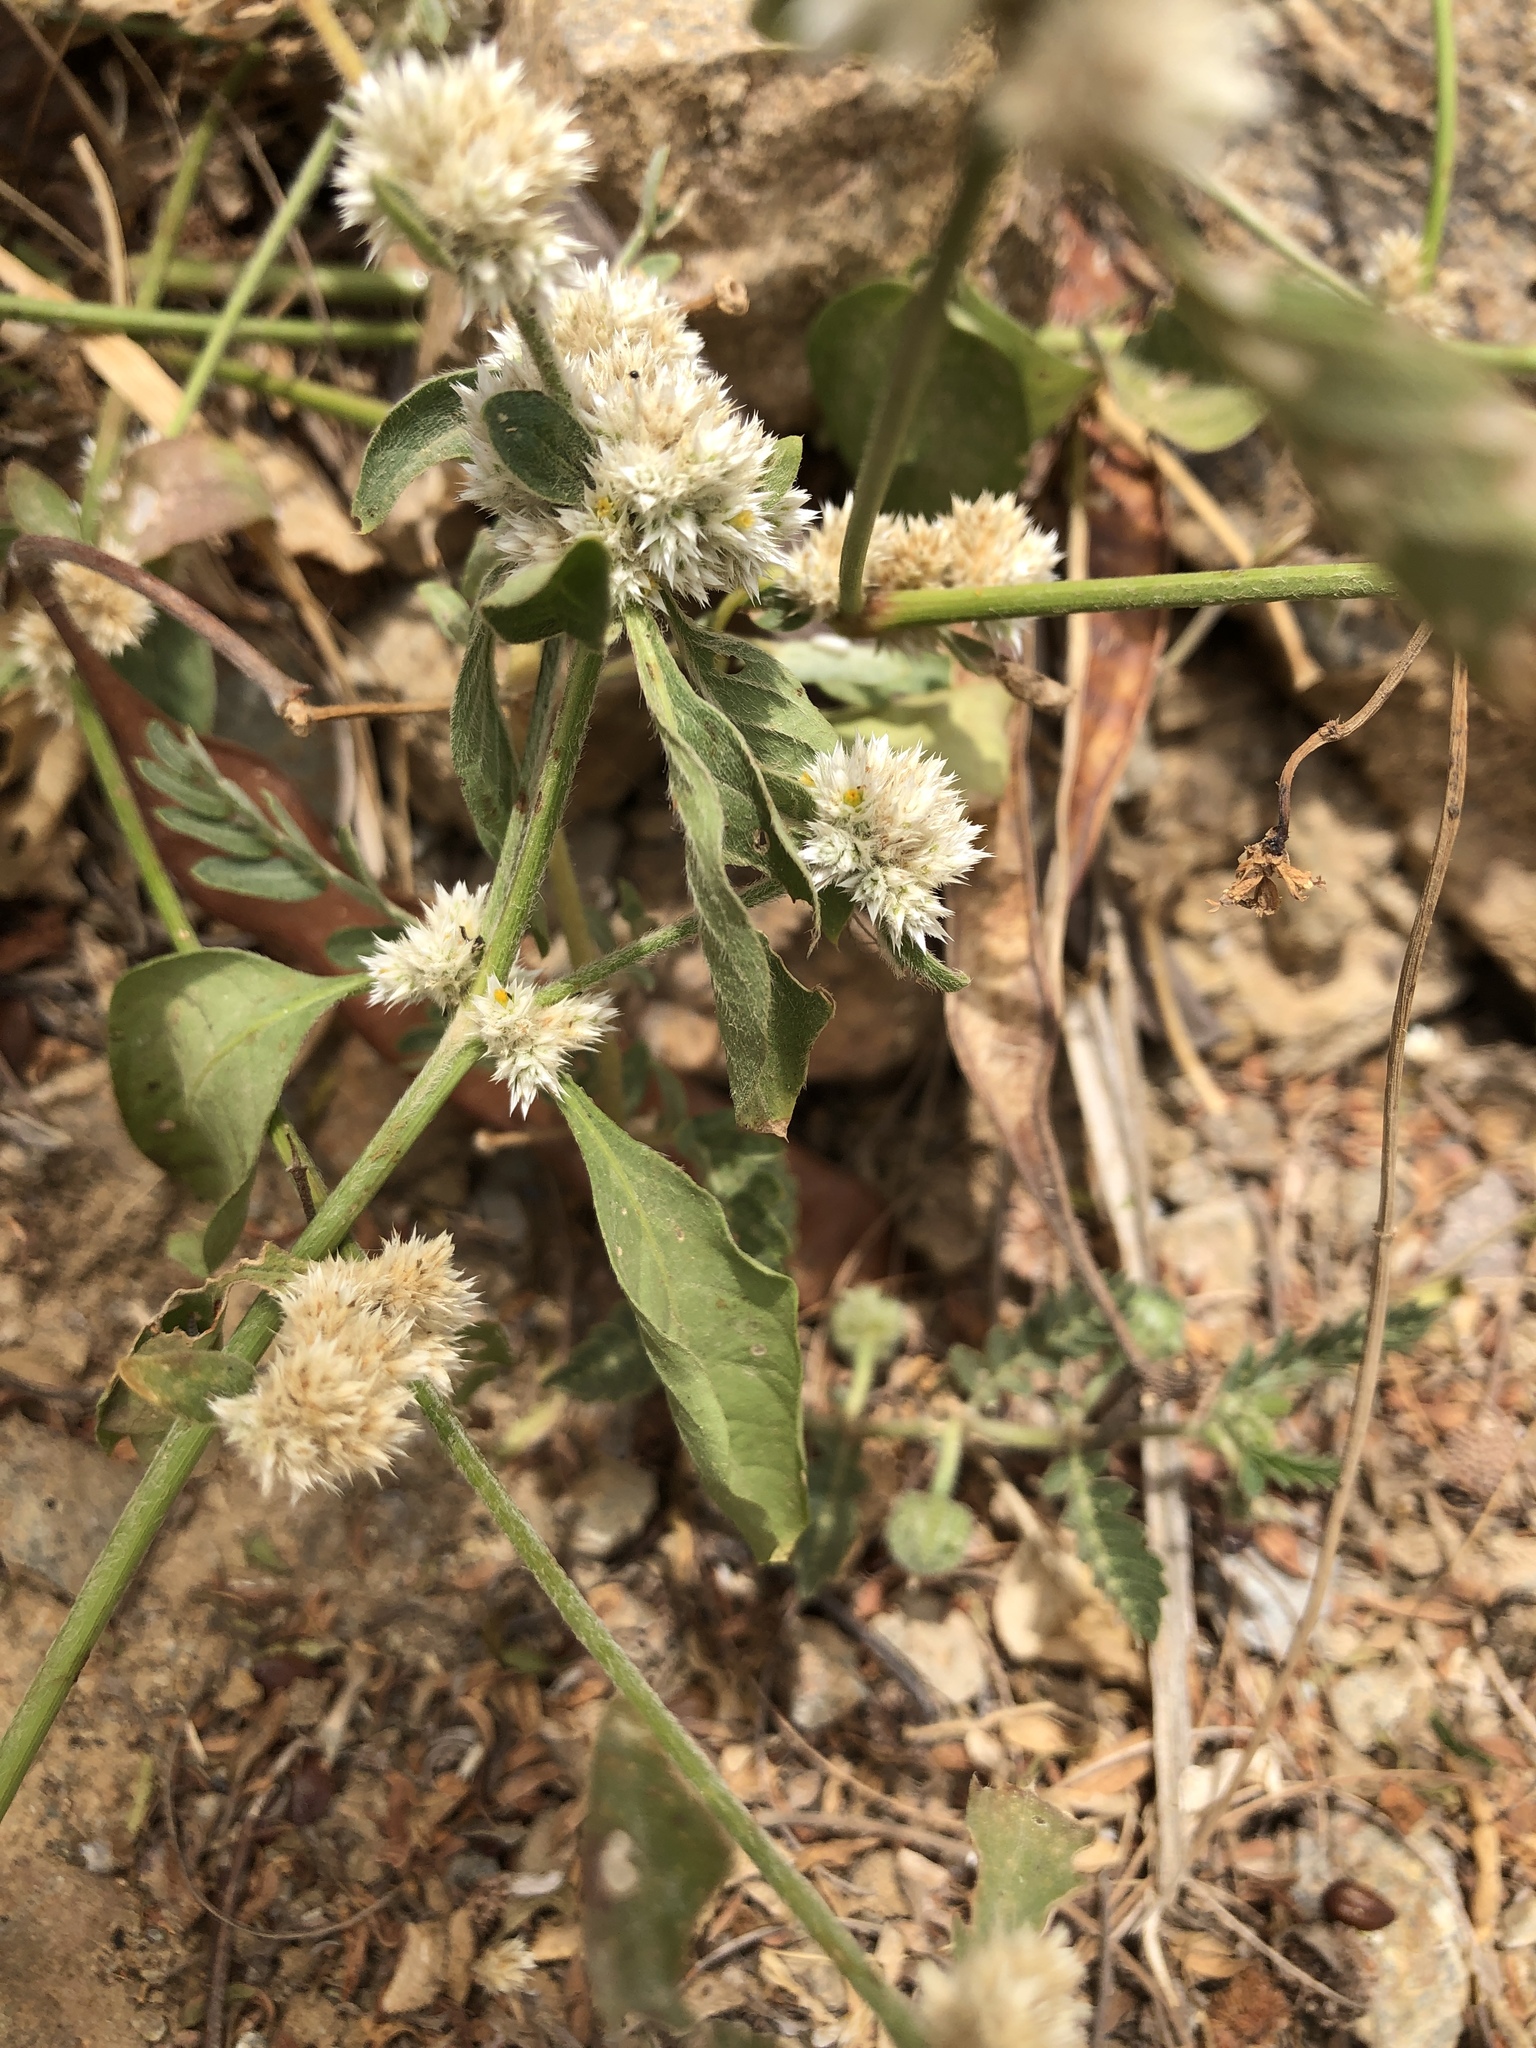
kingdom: Plantae
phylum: Tracheophyta
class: Magnoliopsida
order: Caryophyllales
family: Amaranthaceae
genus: Alternanthera
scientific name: Alternanthera ficoidea
